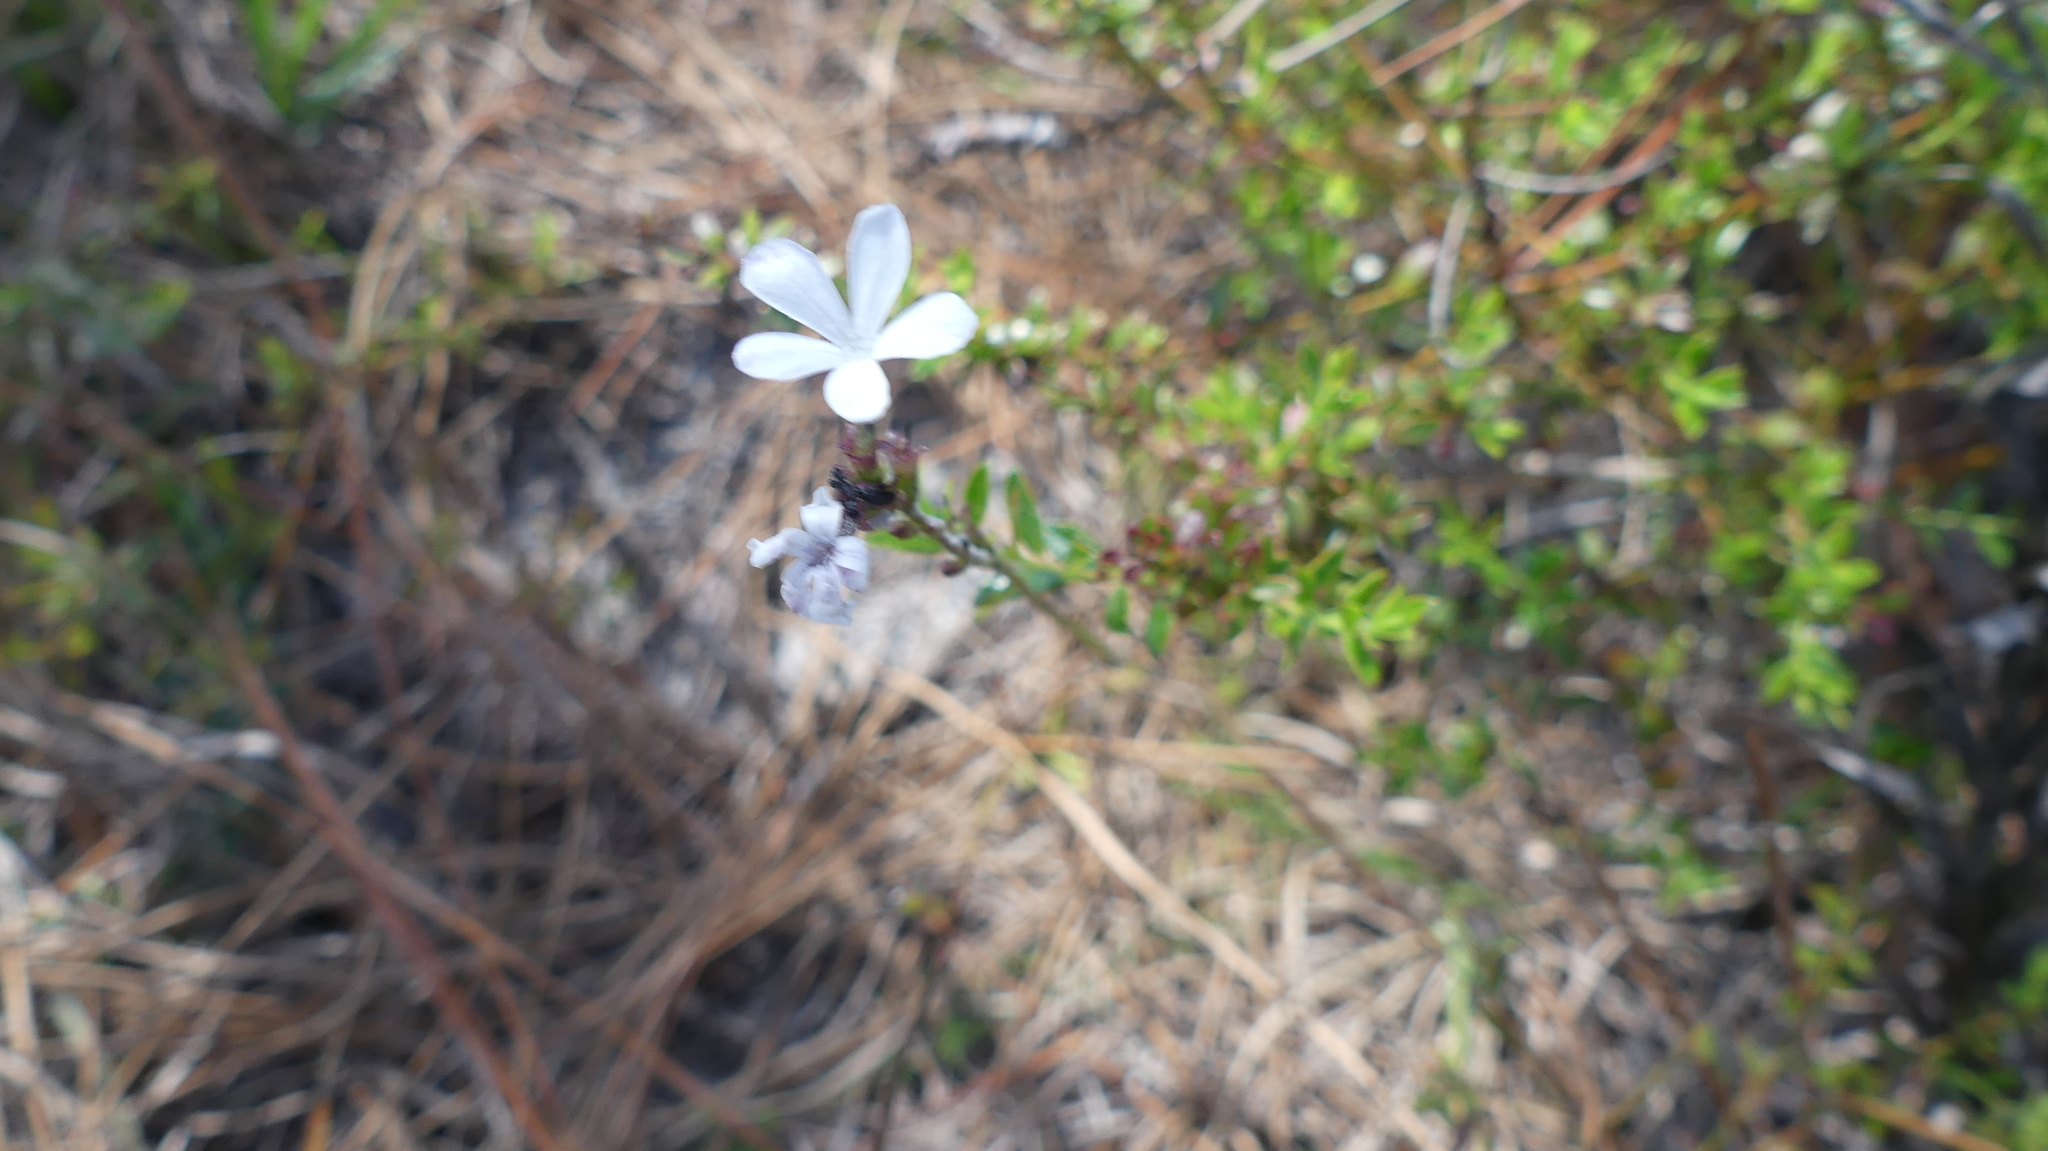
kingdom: Plantae
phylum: Tracheophyta
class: Magnoliopsida
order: Lamiales
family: Orobanchaceae
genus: Buchnera
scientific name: Buchnera floridana
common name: Florida bluehearts
